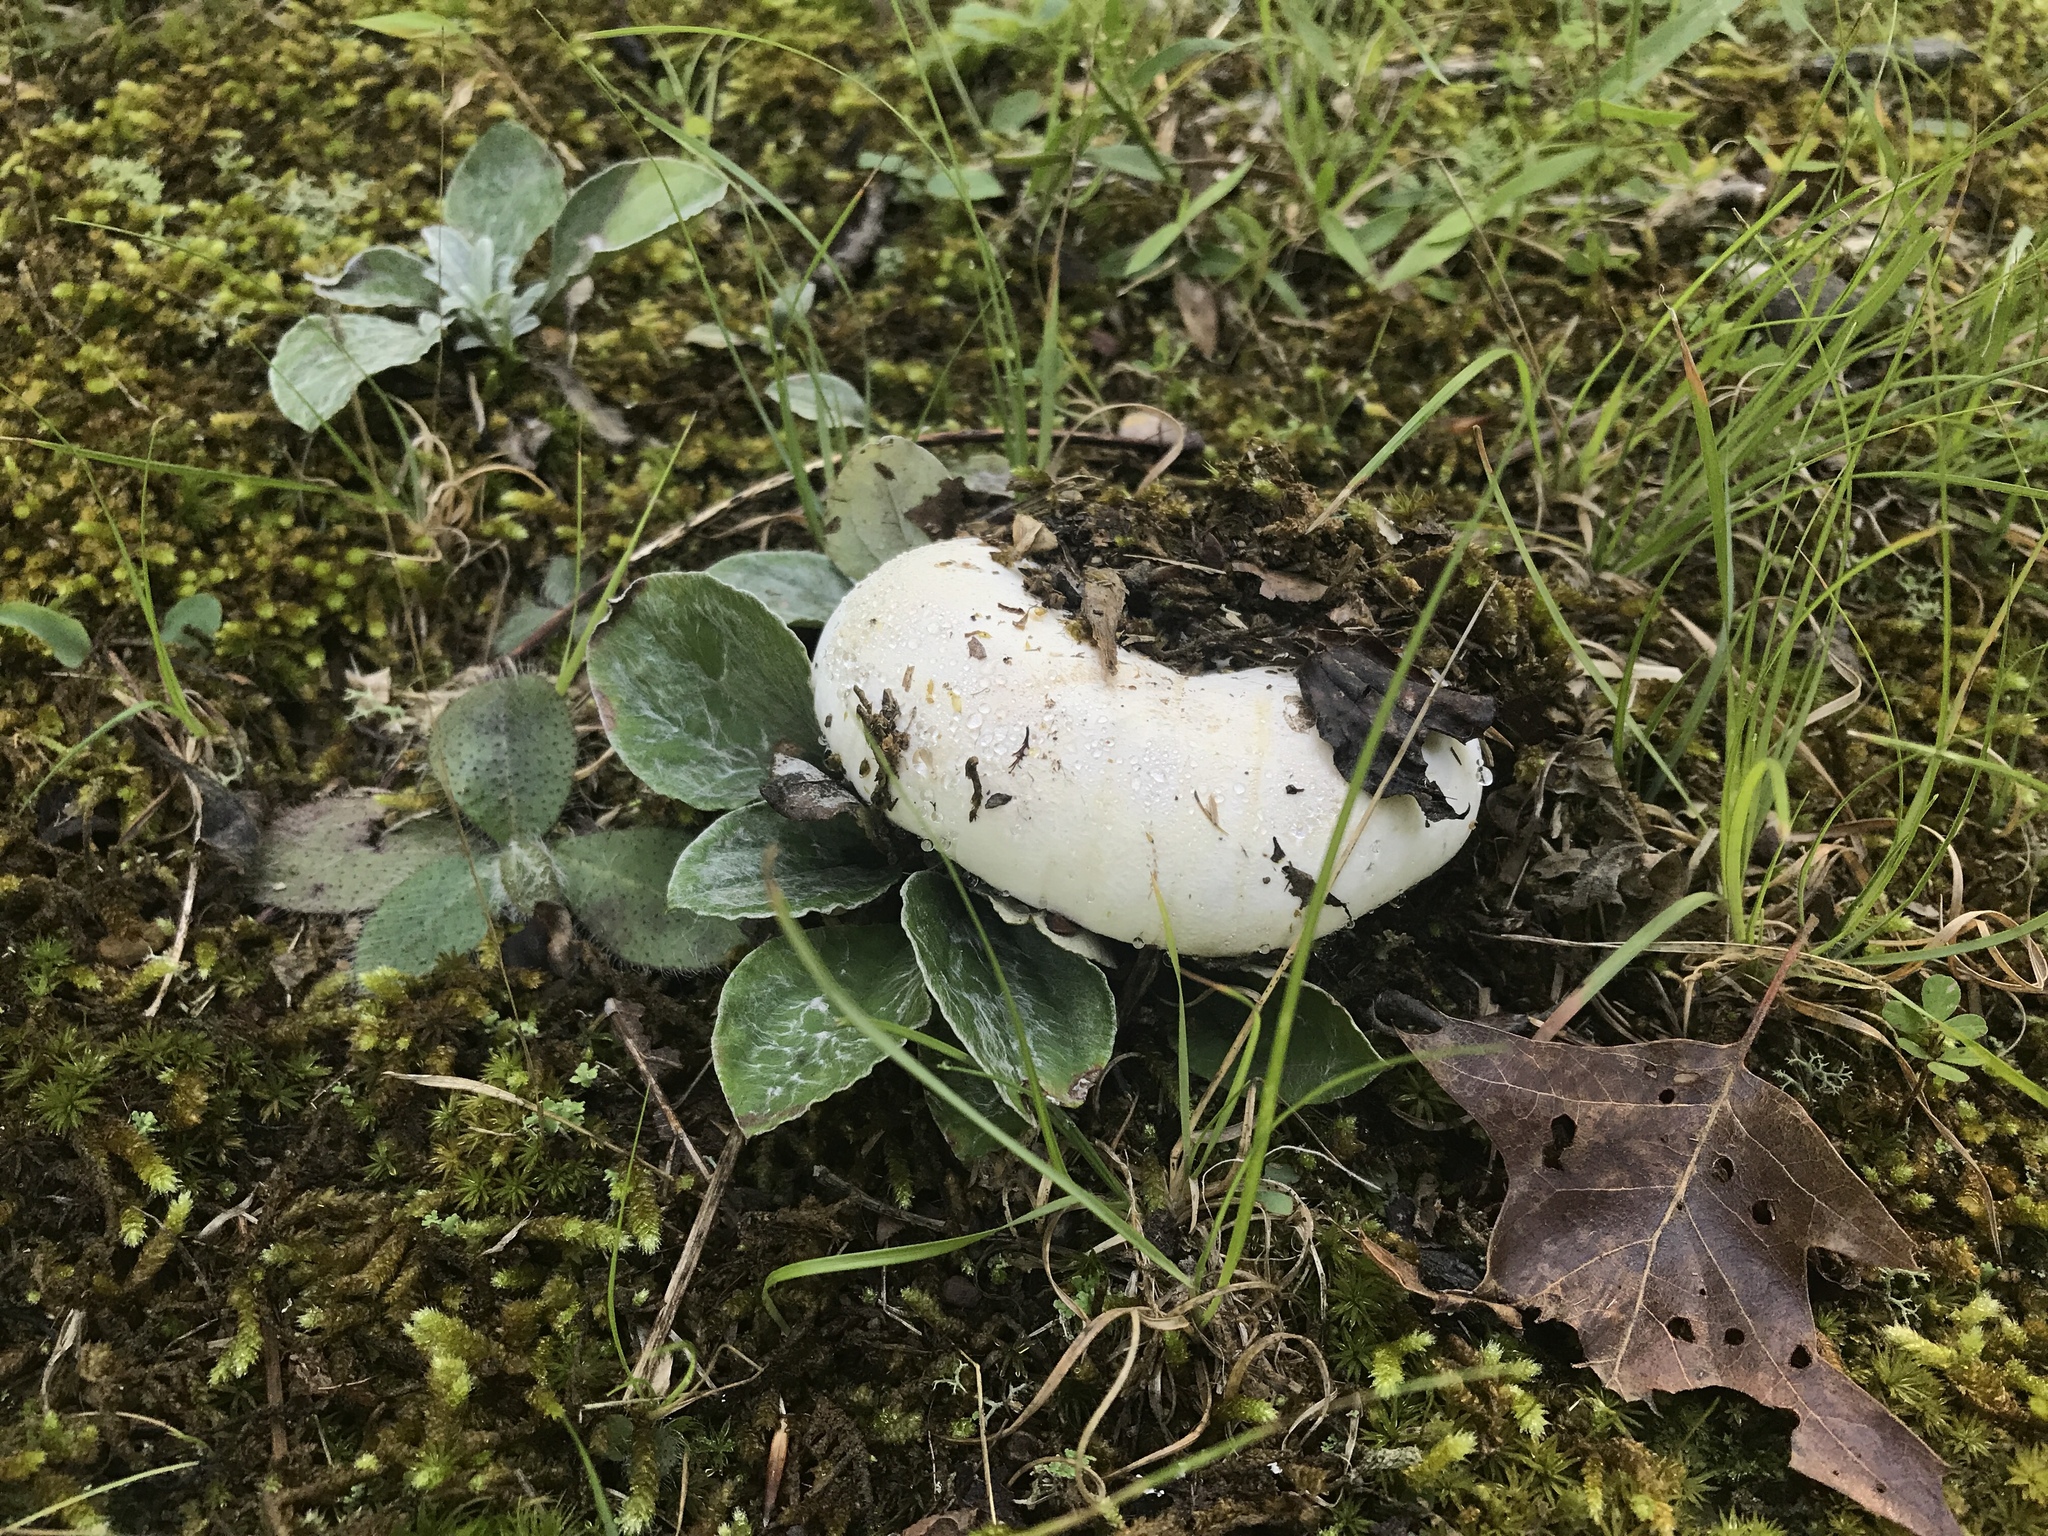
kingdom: Fungi
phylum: Basidiomycota
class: Agaricomycetes
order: Russulales
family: Russulaceae
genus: Lactifluus
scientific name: Lactifluus subvellereus
